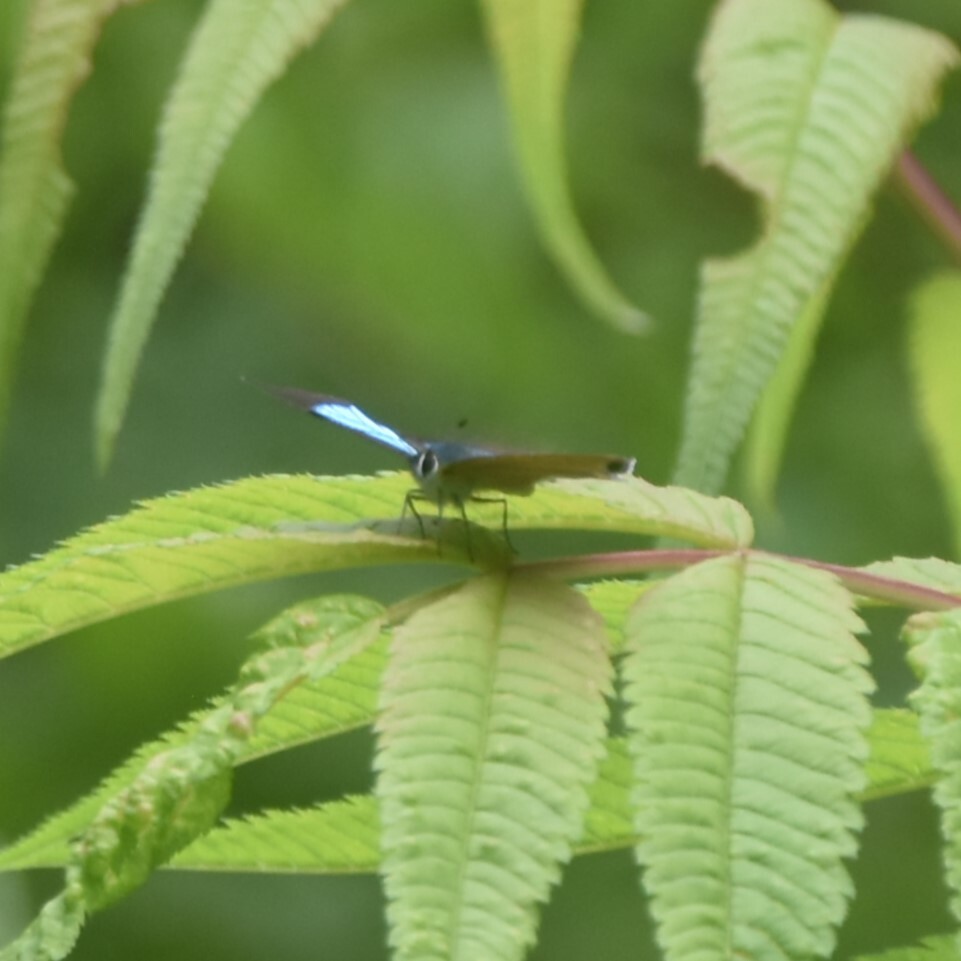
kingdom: Animalia
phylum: Arthropoda
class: Insecta
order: Lepidoptera
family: Lycaenidae
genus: Heliophorus
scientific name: Heliophorus
